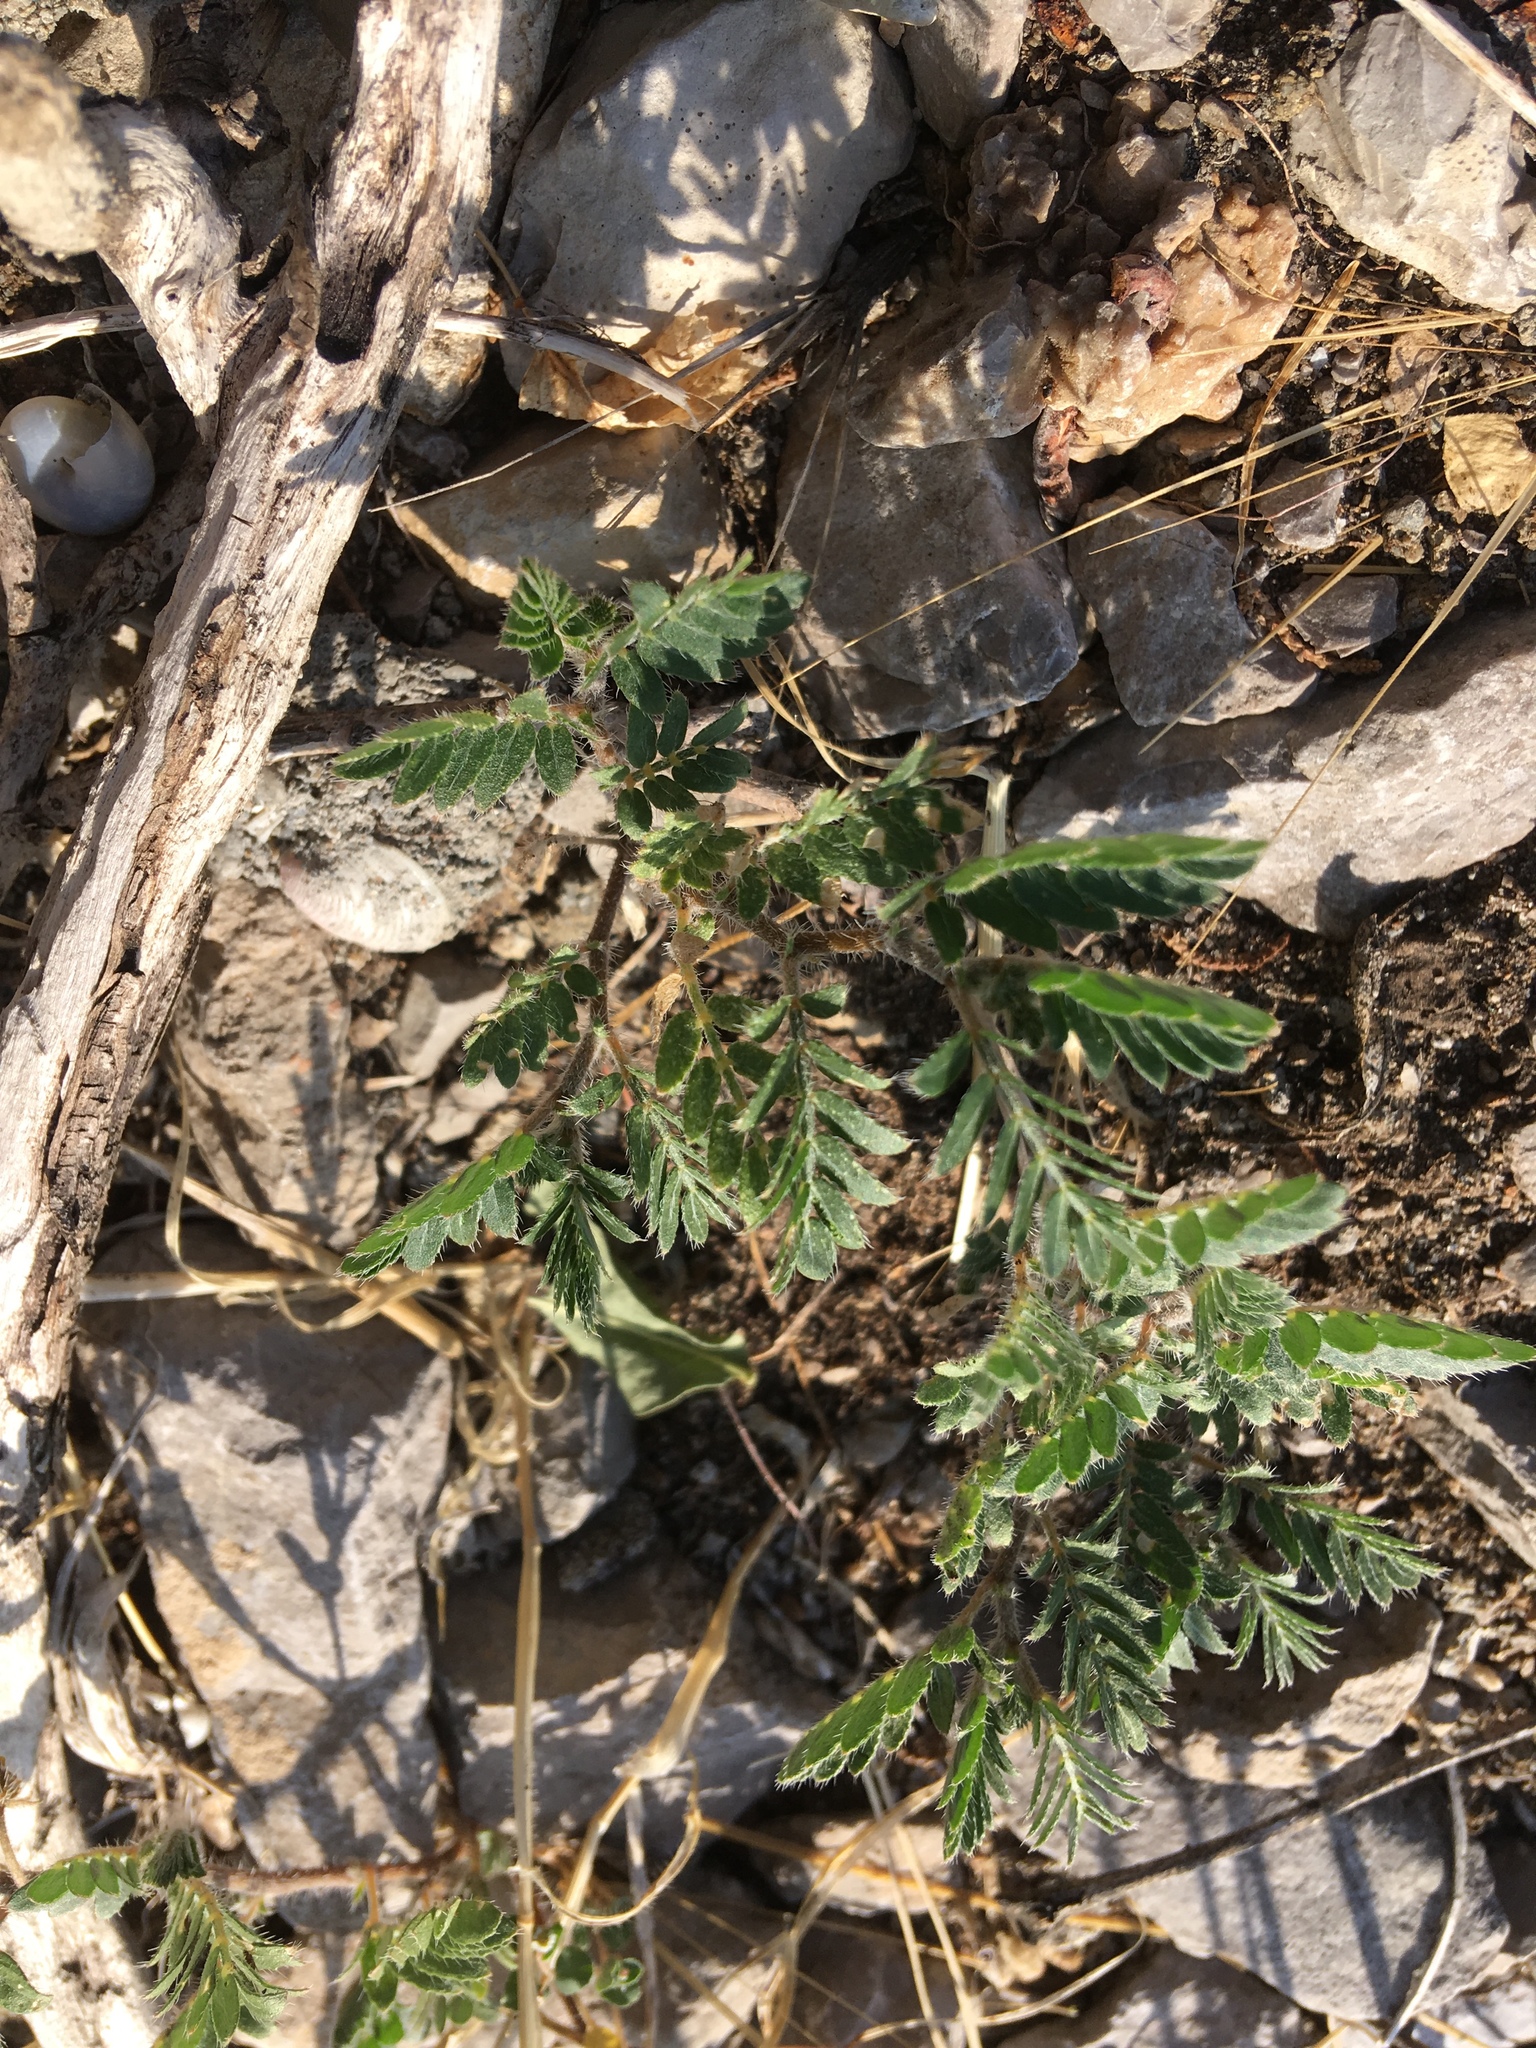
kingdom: Plantae
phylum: Tracheophyta
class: Magnoliopsida
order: Zygophyllales
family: Zygophyllaceae
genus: Tribulus
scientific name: Tribulus terrestris
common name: Puncturevine
